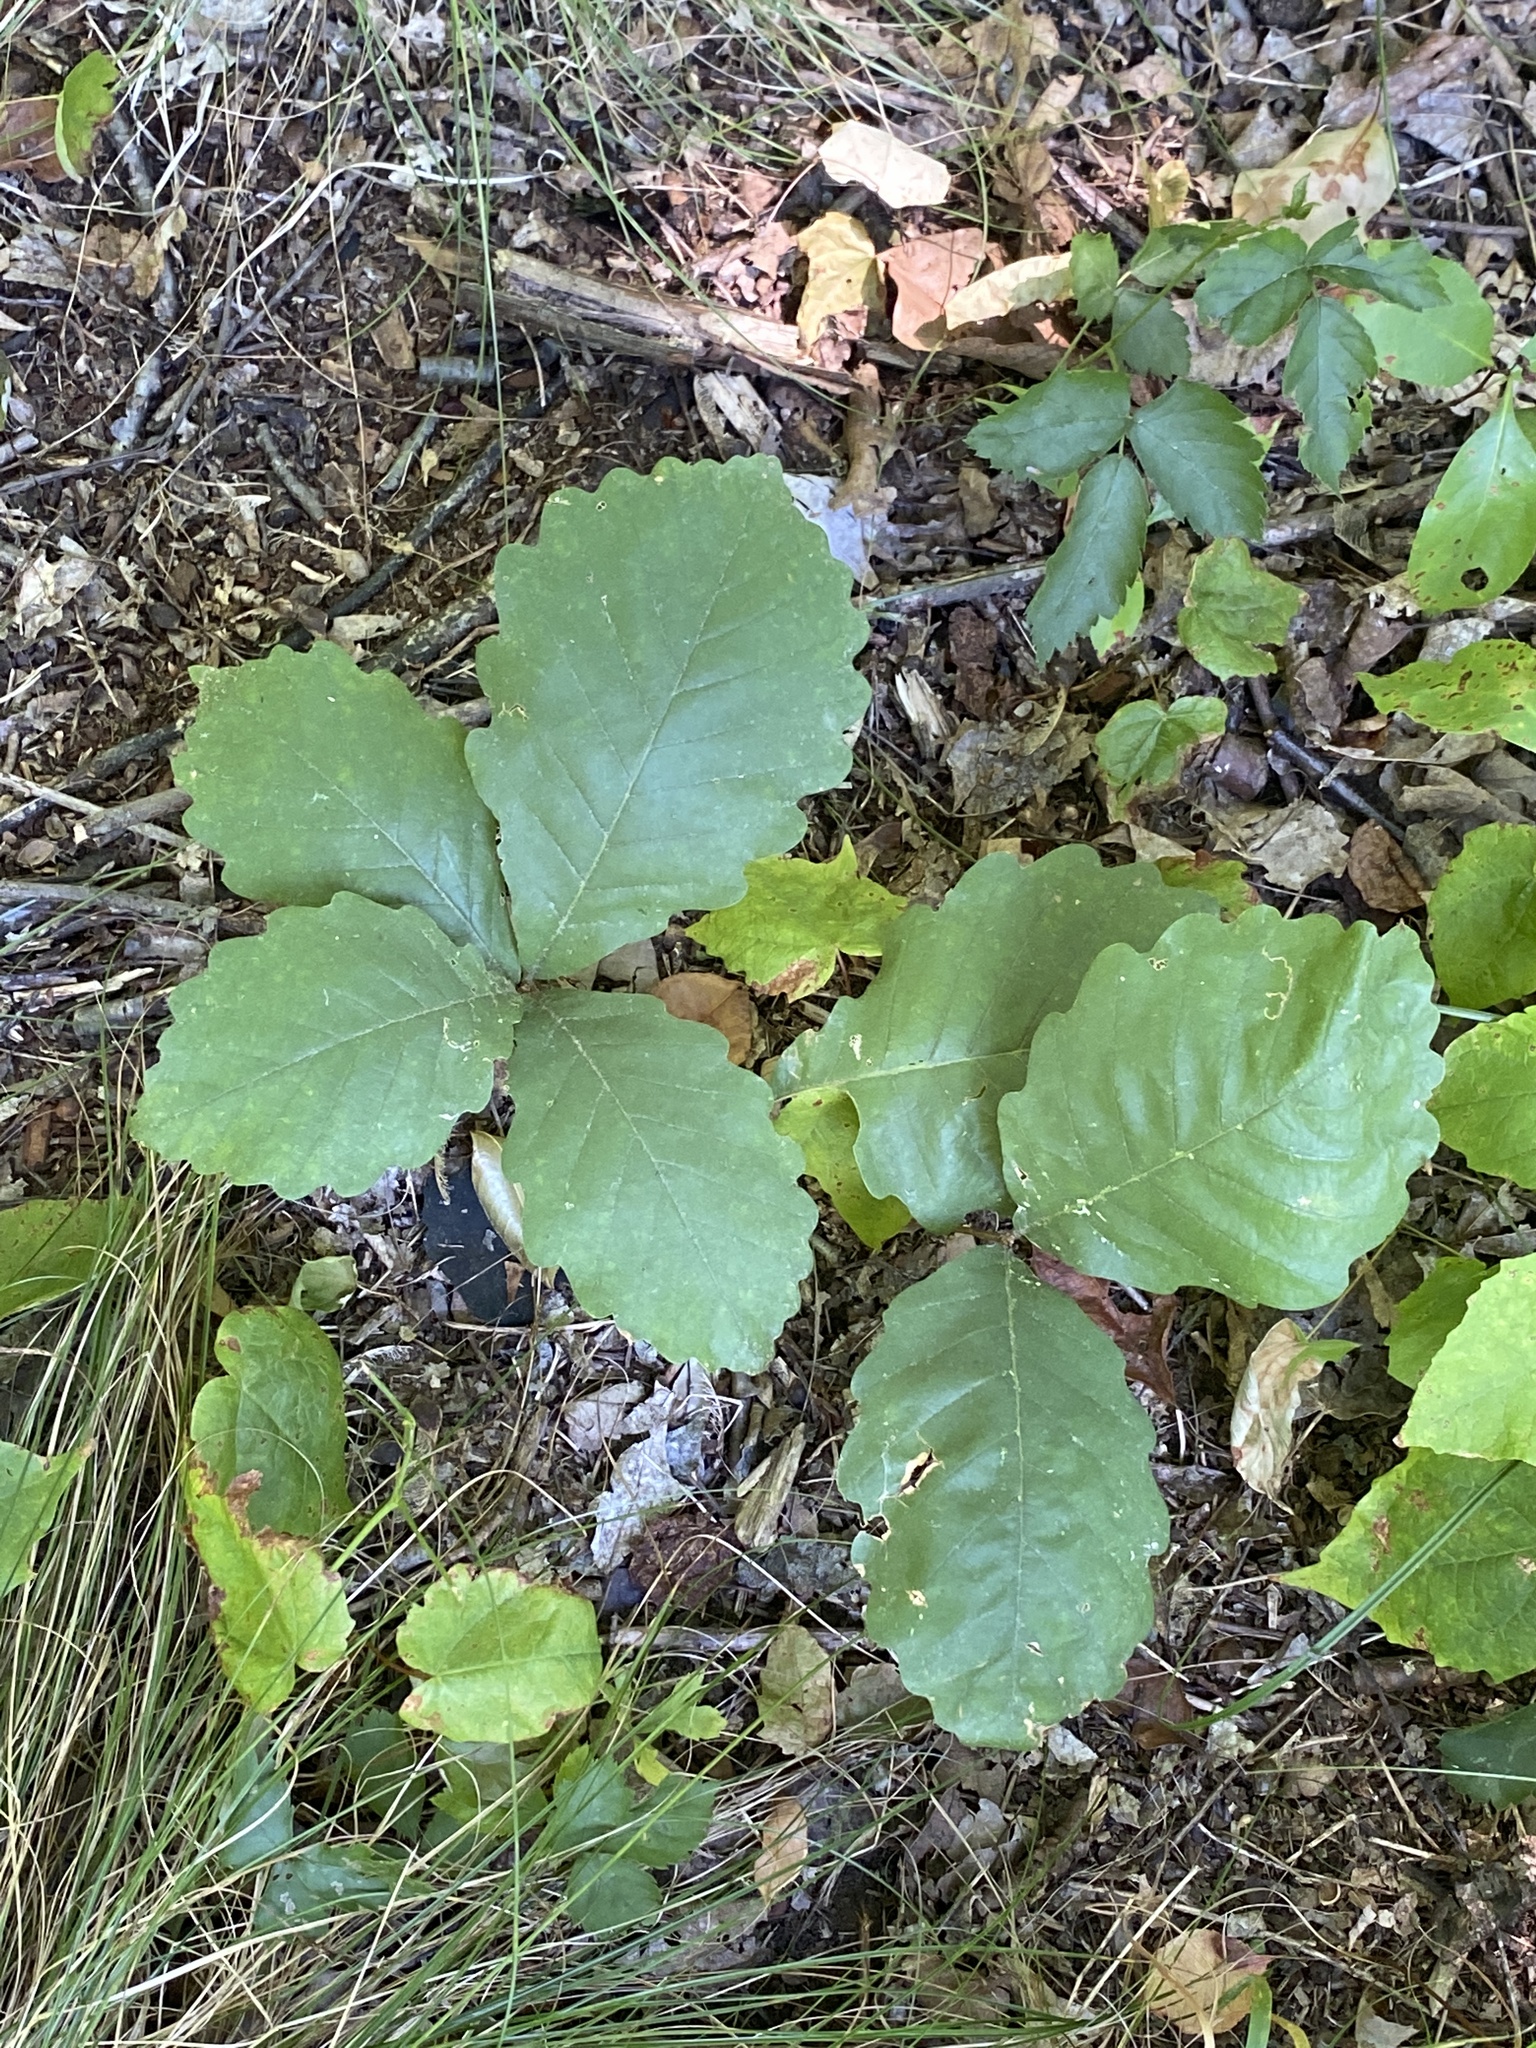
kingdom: Plantae
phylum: Tracheophyta
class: Magnoliopsida
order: Fagales
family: Fagaceae
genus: Quercus
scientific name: Quercus montana
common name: Chestnut oak
